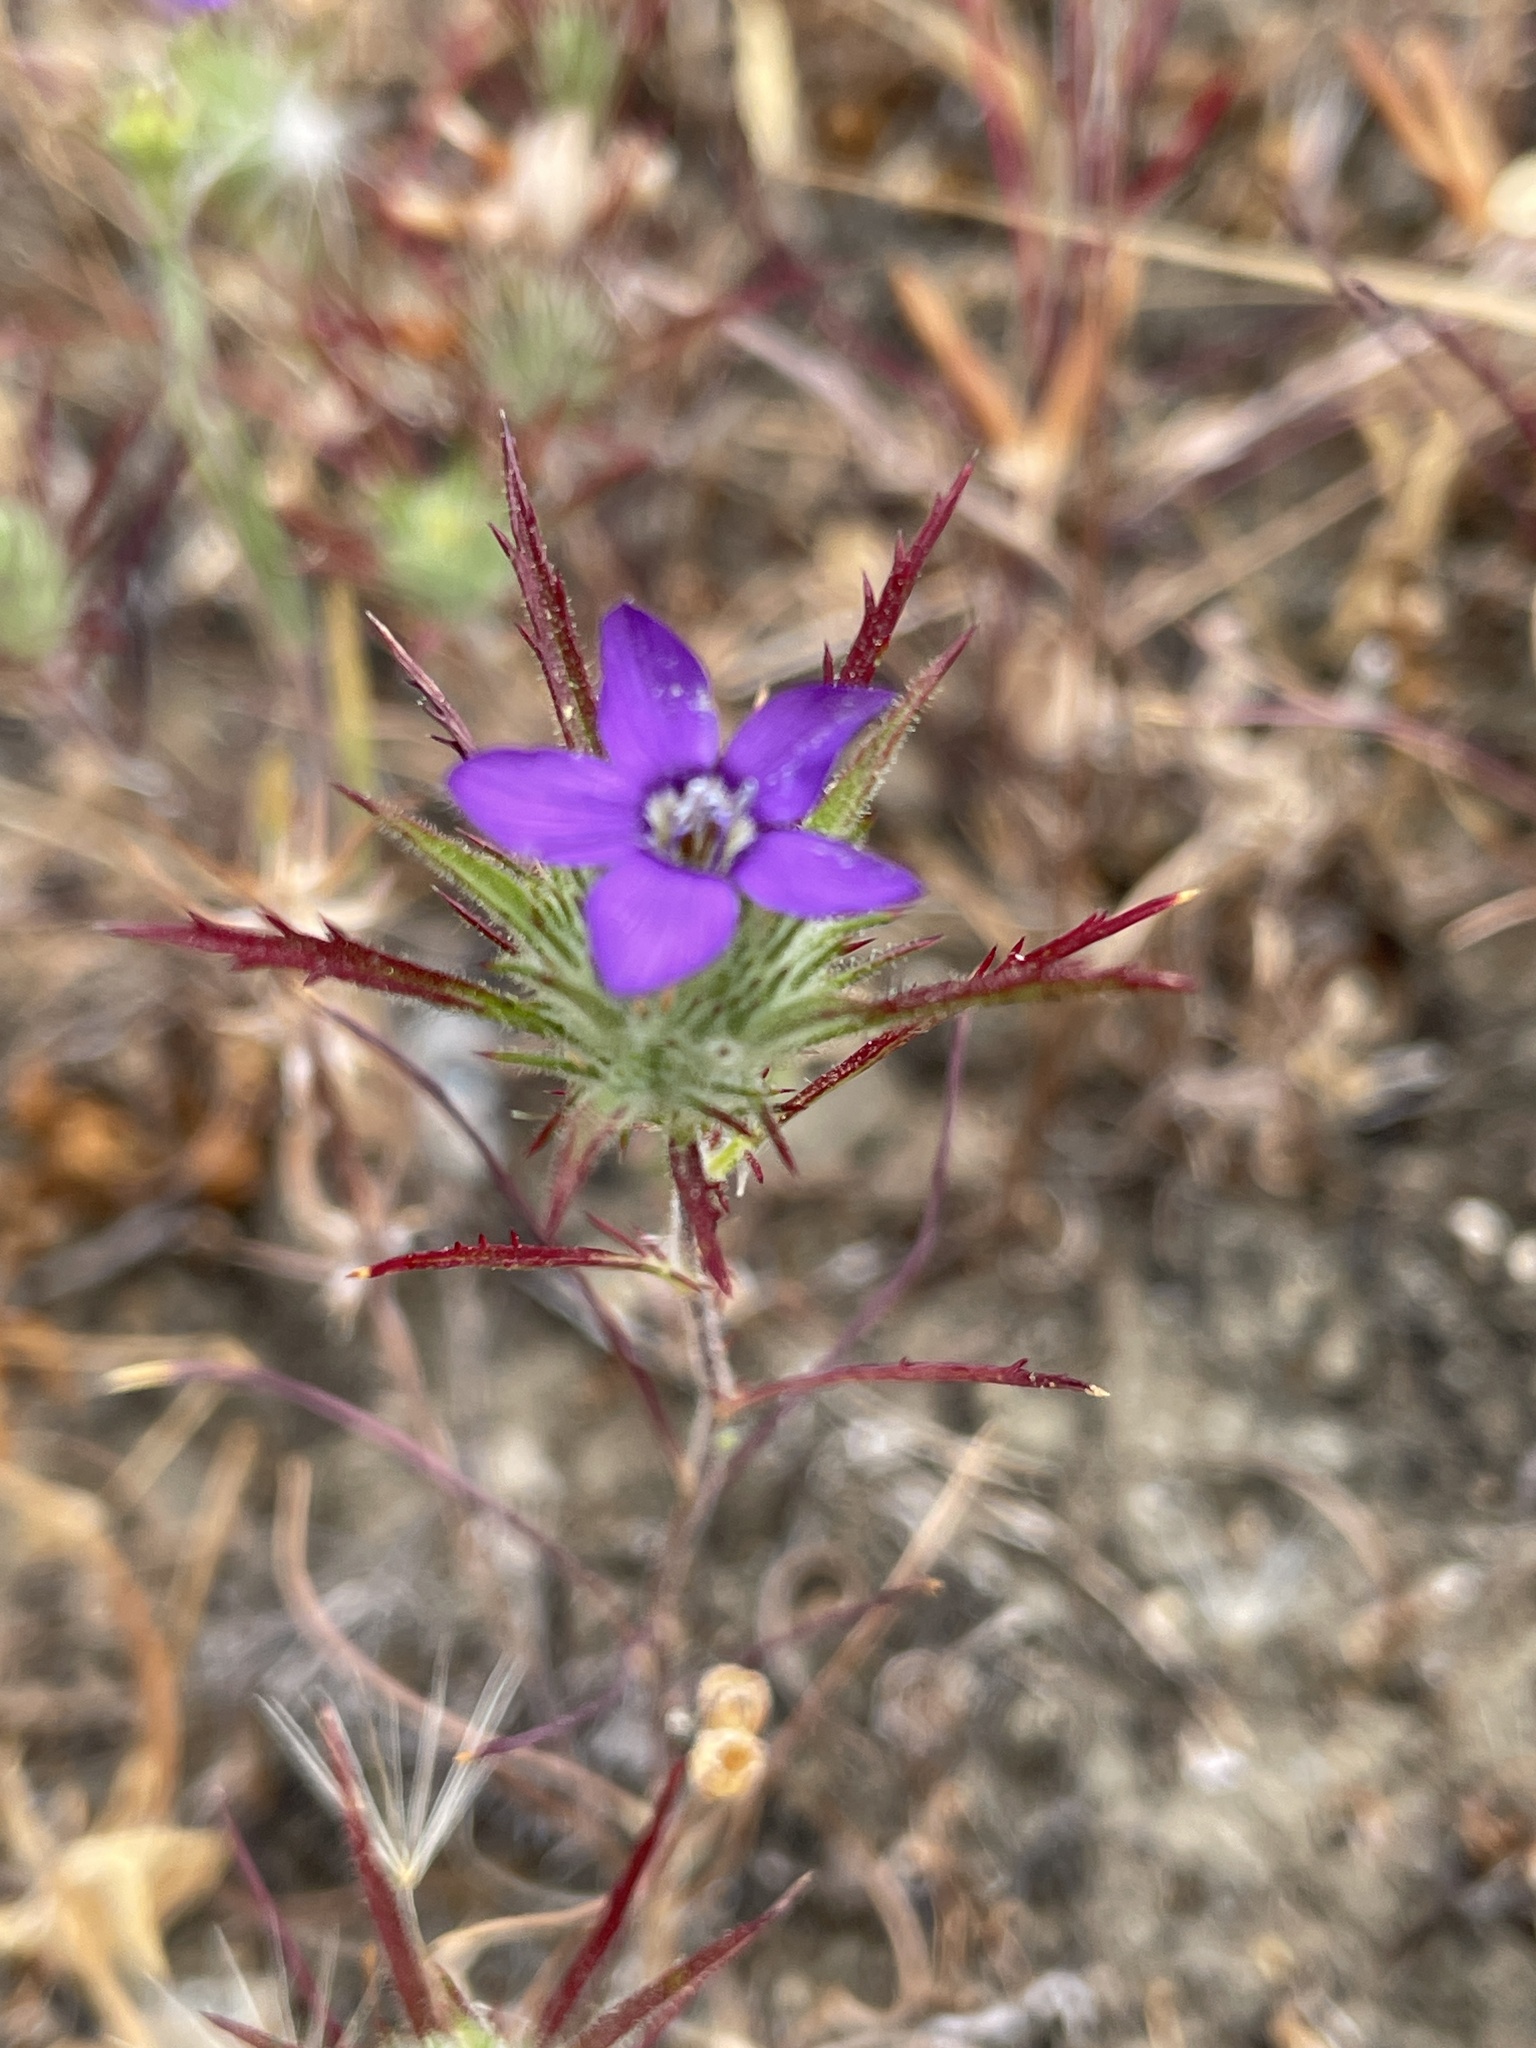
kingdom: Plantae
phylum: Tracheophyta
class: Magnoliopsida
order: Ericales
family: Polemoniaceae
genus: Navarretia
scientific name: Navarretia viscidula
